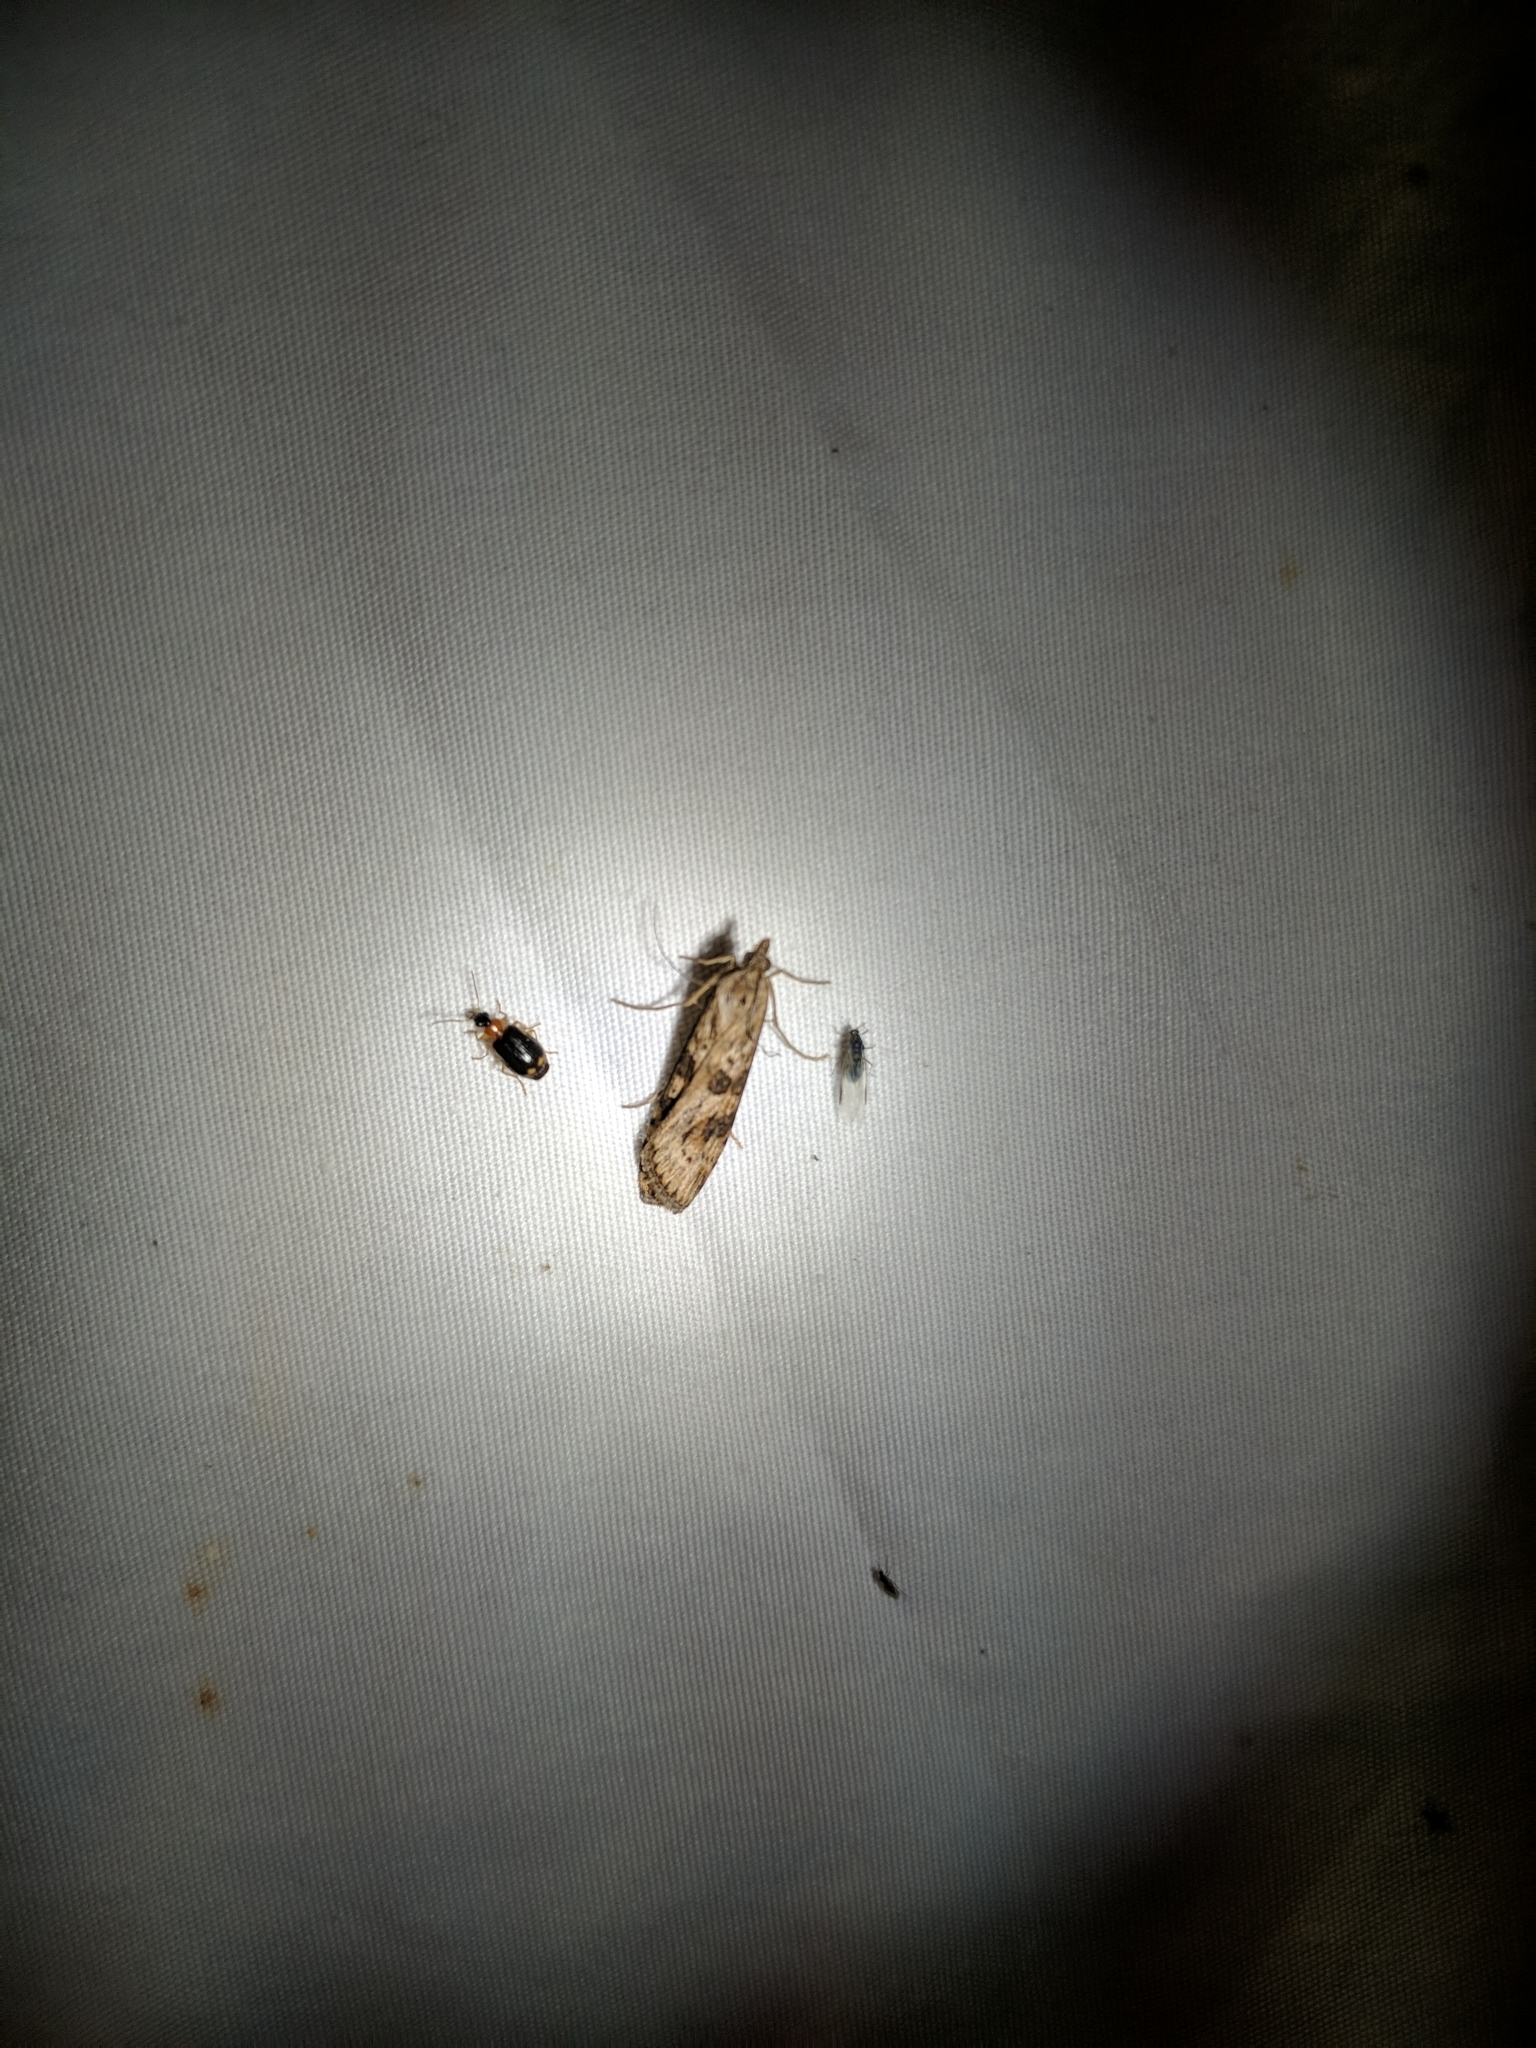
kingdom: Animalia
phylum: Arthropoda
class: Insecta
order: Lepidoptera
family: Crambidae
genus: Nomophila
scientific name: Nomophila nearctica
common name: American rush veneer
